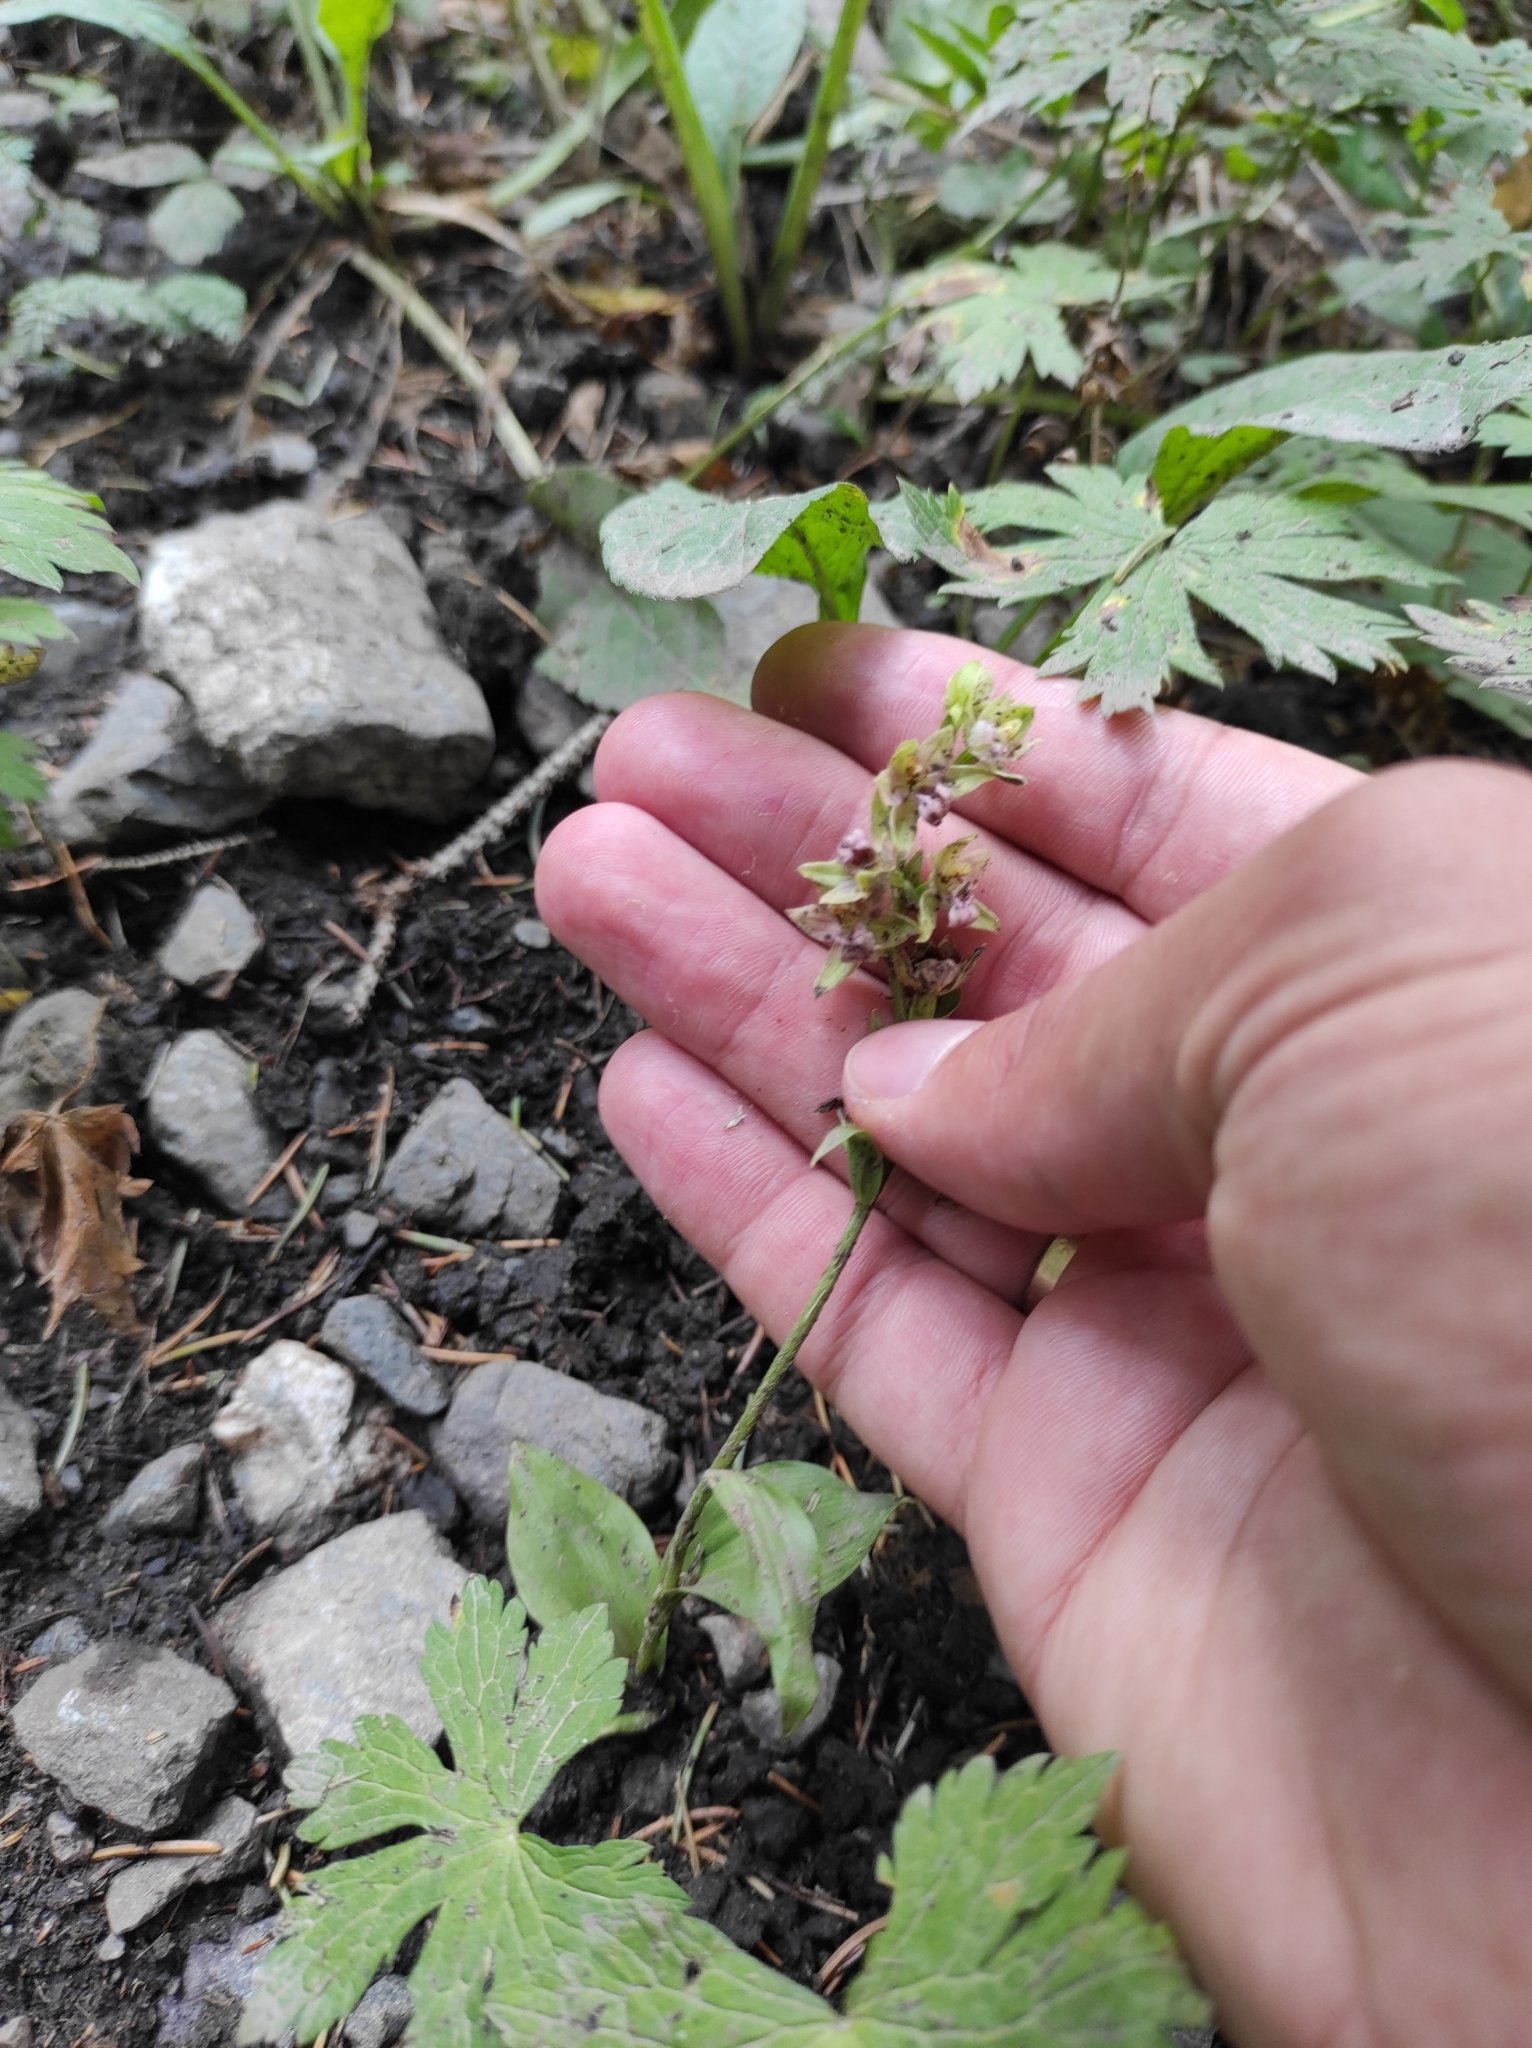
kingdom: Plantae
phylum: Tracheophyta
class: Liliopsida
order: Asparagales
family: Orchidaceae
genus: Epipactis
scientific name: Epipactis persica
